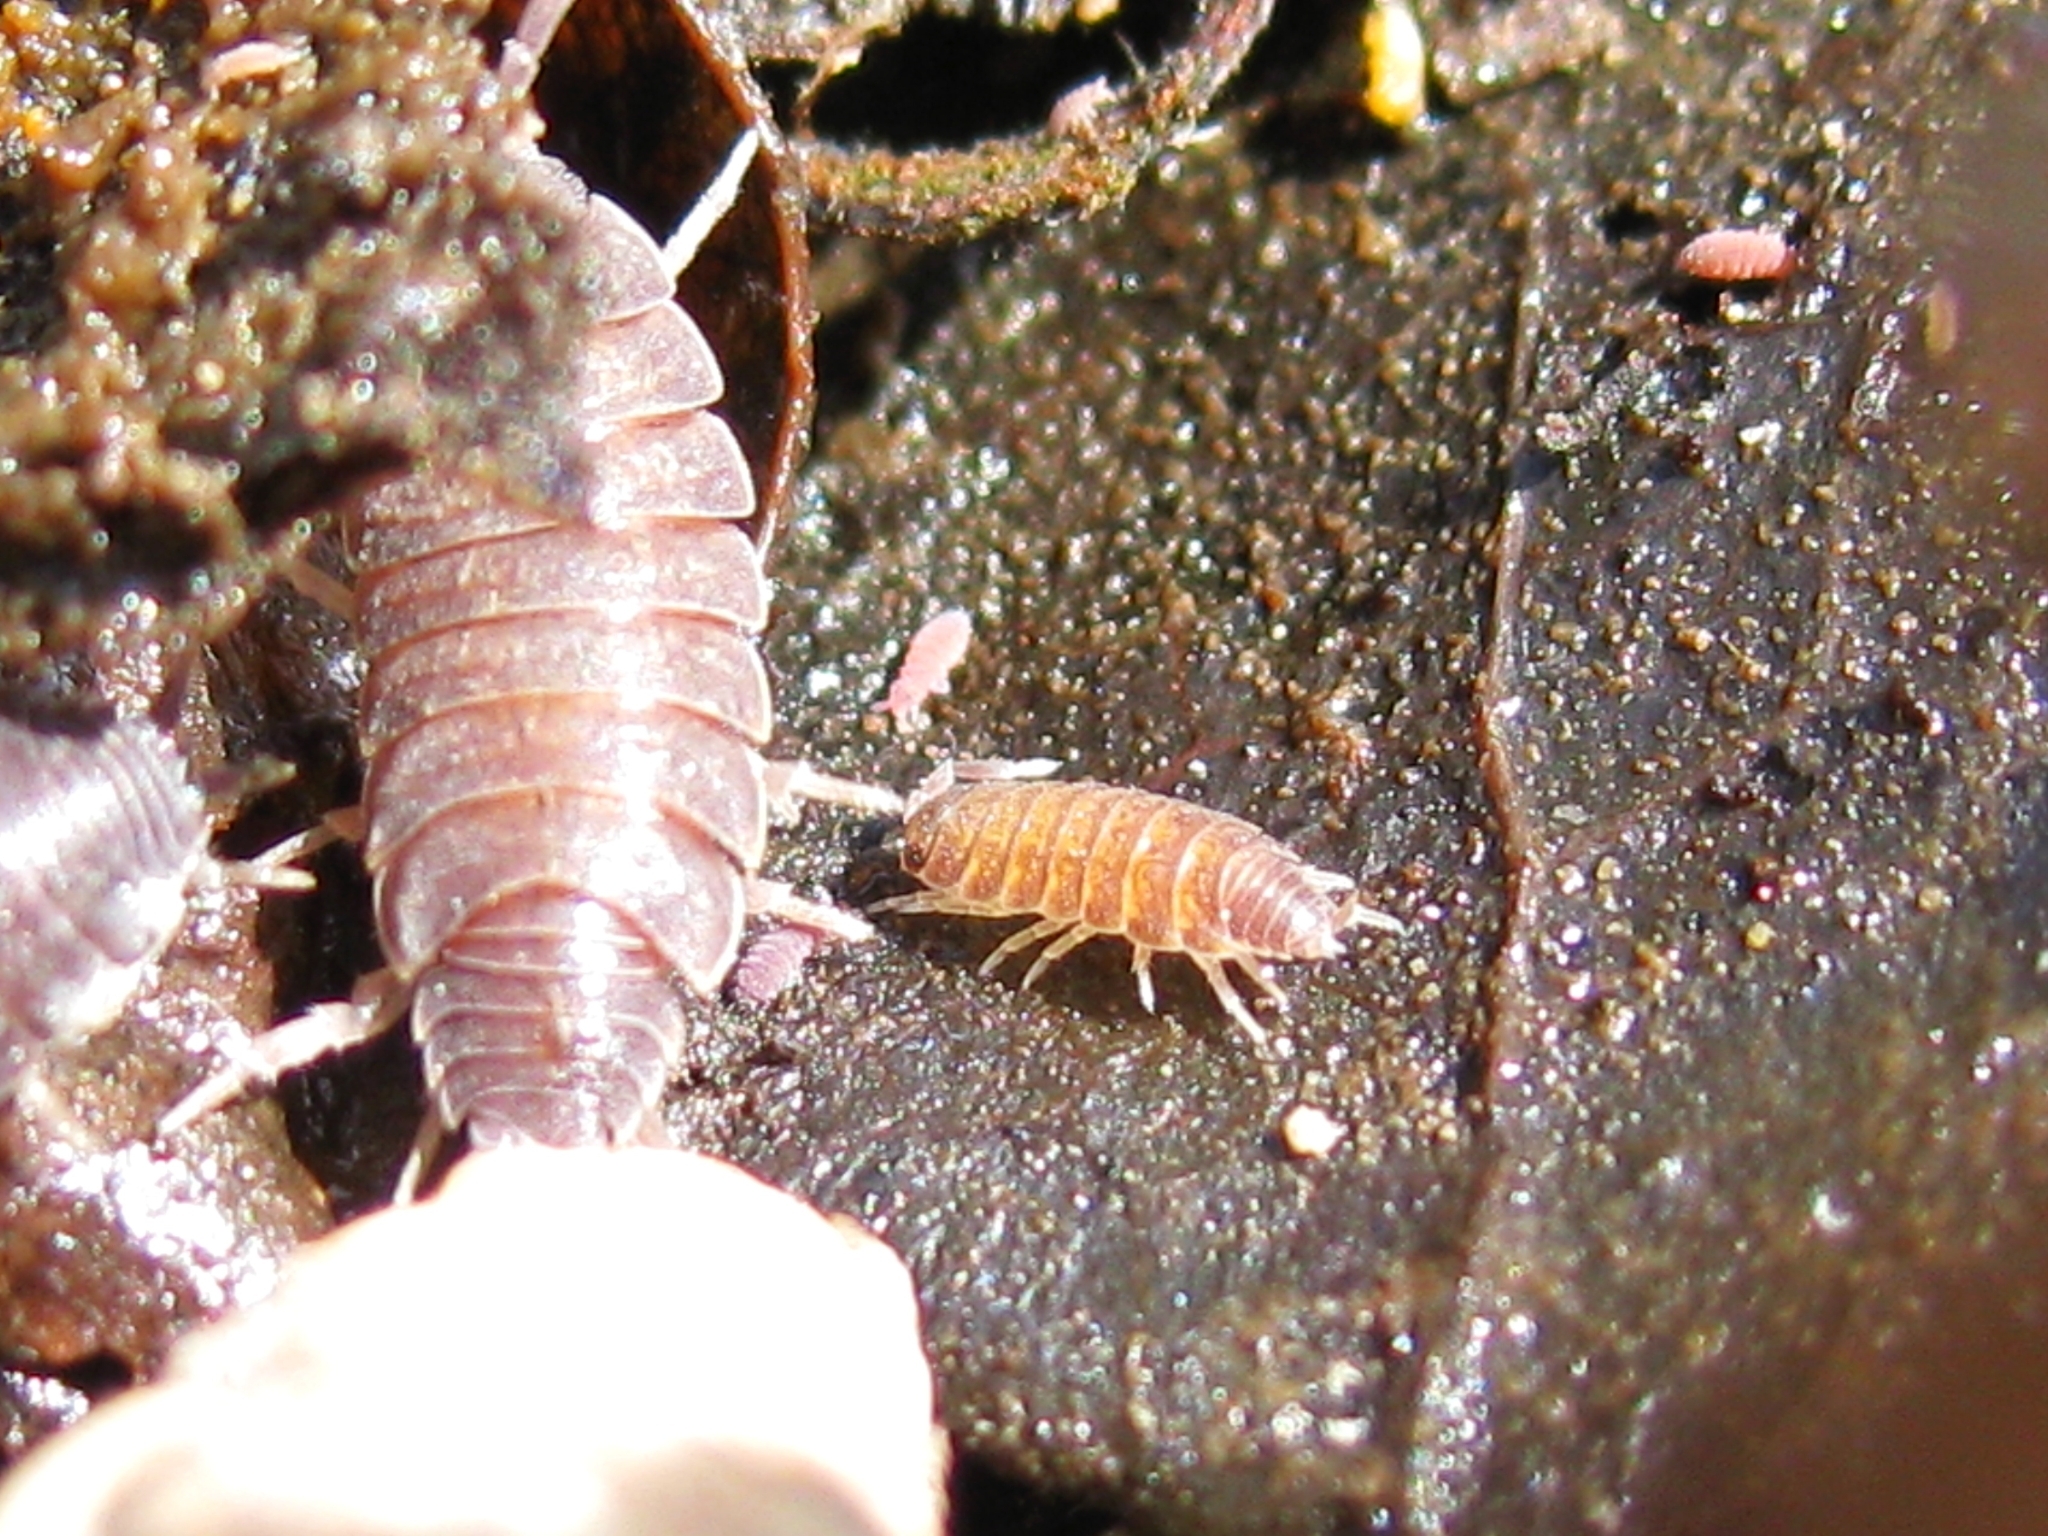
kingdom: Animalia
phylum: Arthropoda
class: Malacostraca
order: Isopoda
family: Porcellionidae
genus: Porcellionides
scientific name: Porcellionides
